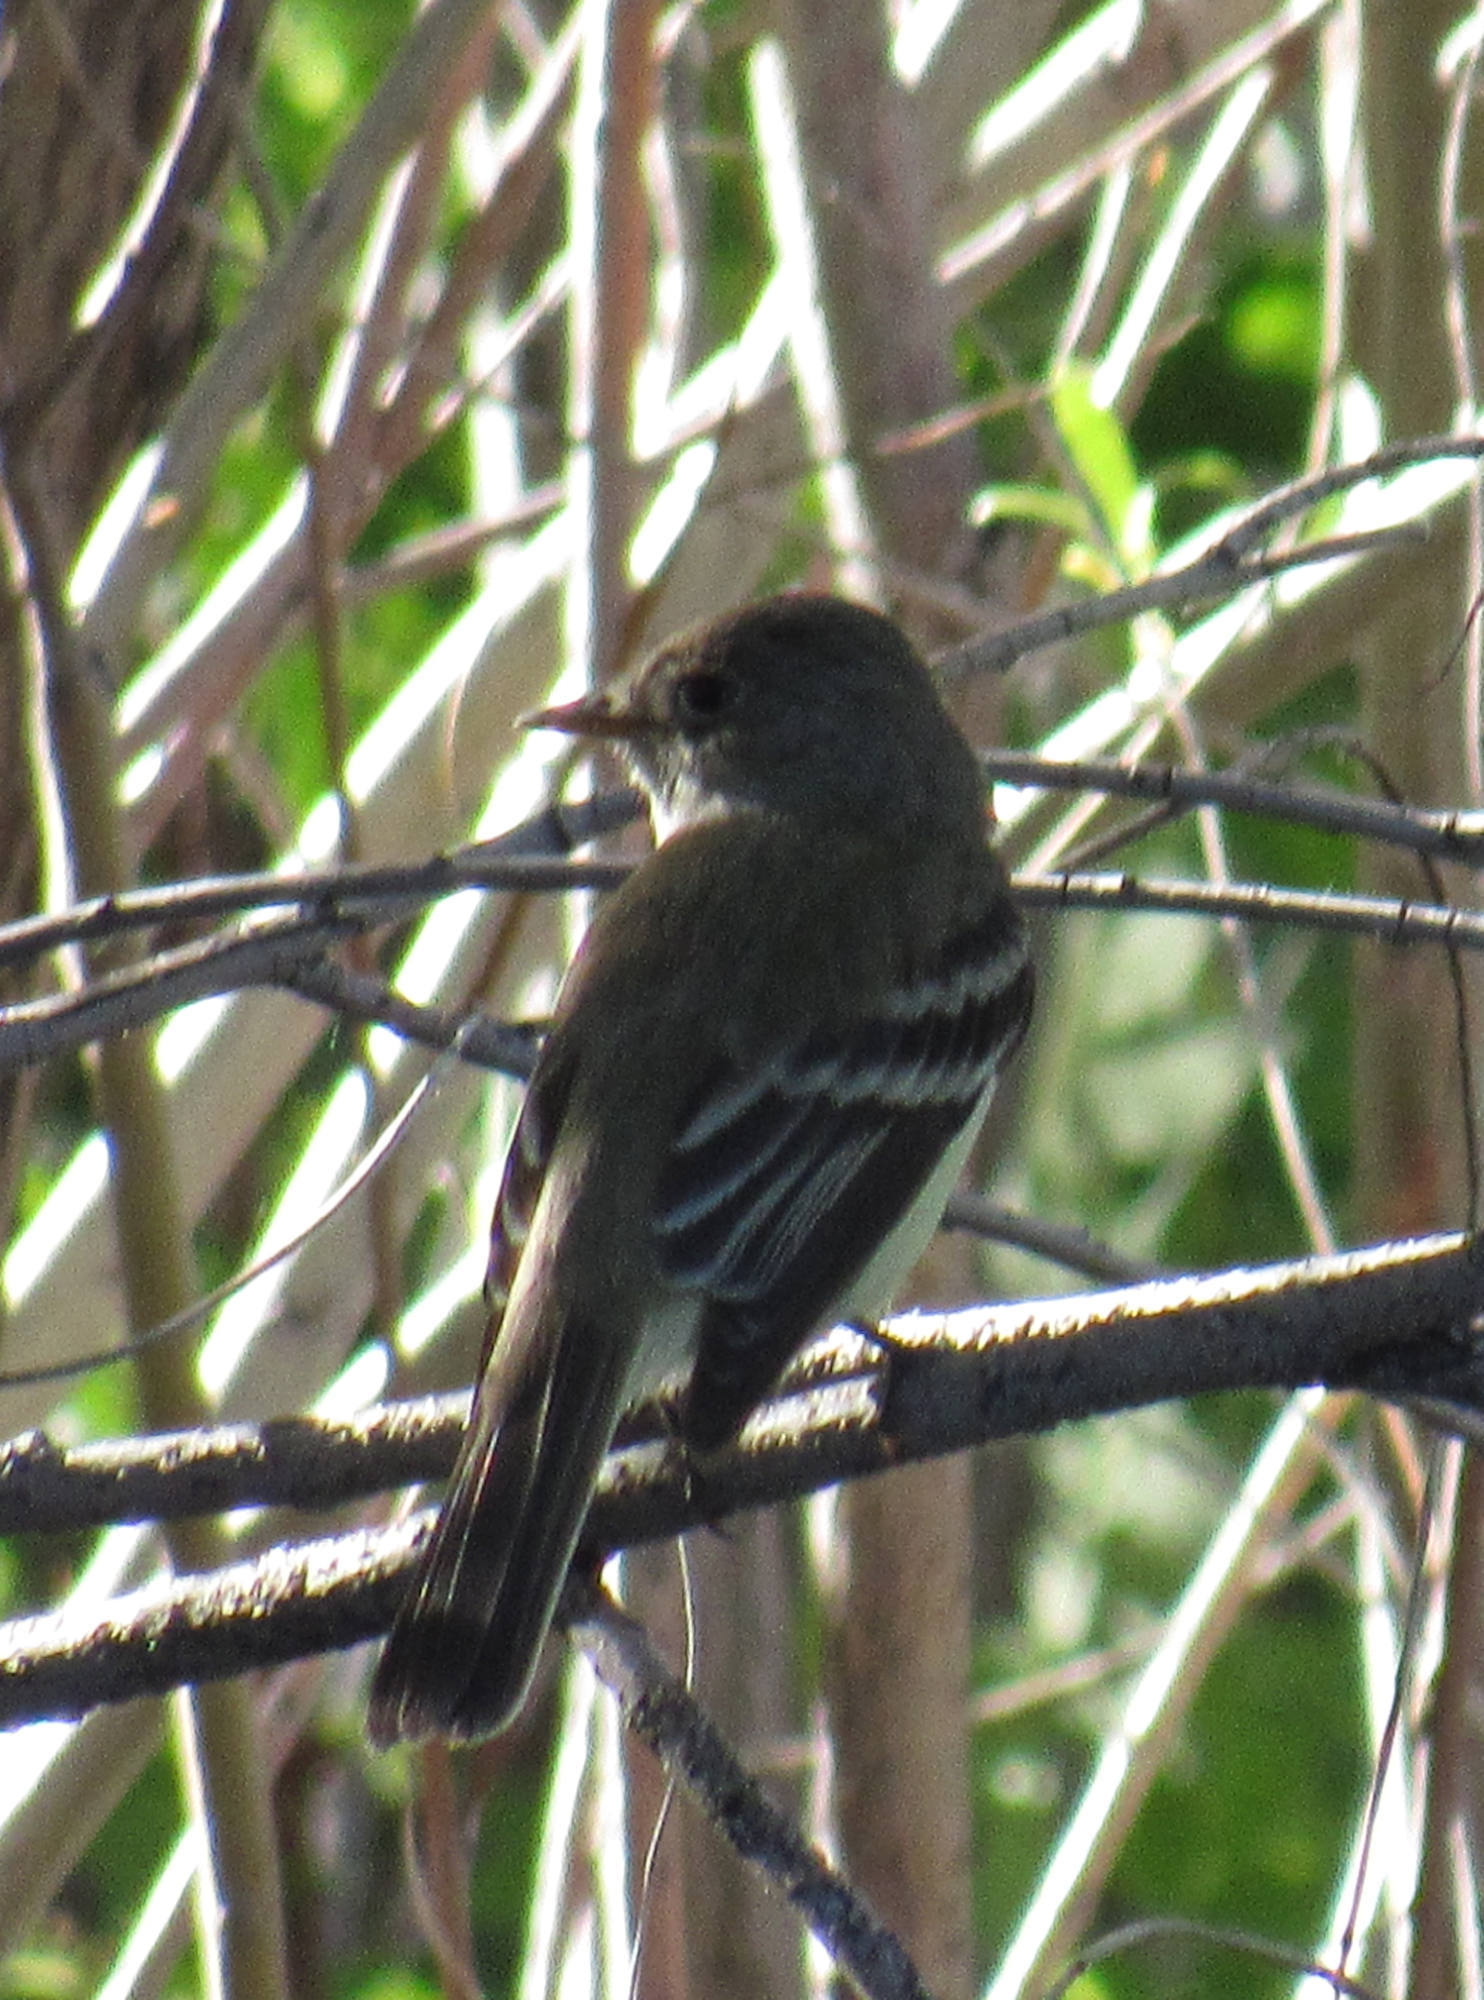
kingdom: Animalia
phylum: Chordata
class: Aves
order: Passeriformes
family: Tyrannidae
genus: Empidonax
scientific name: Empidonax traillii
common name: Willow flycatcher
